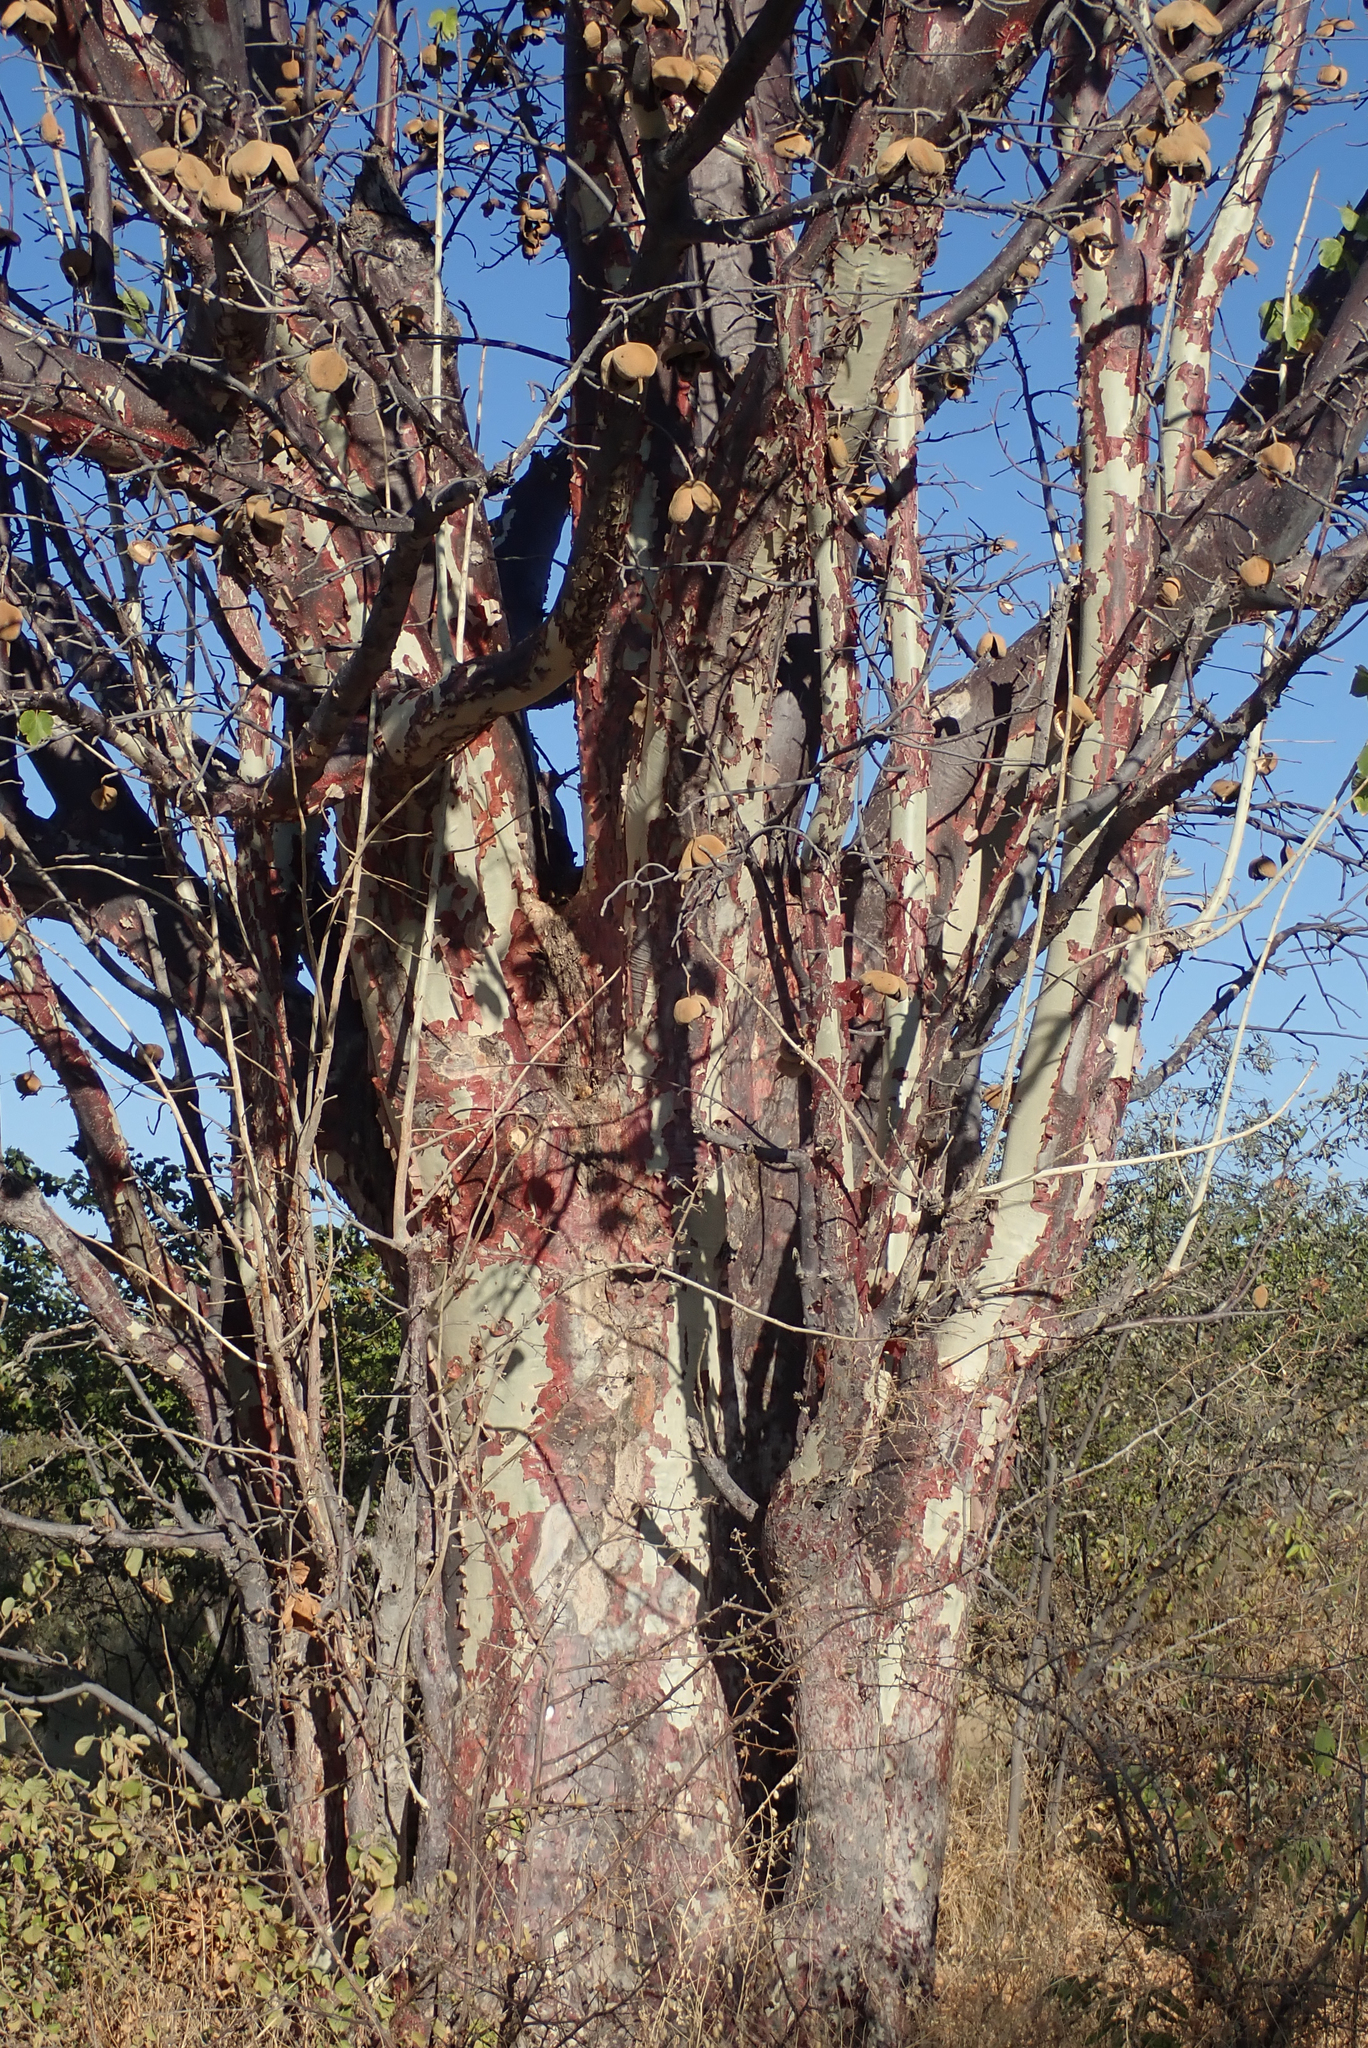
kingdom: Plantae
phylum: Tracheophyta
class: Magnoliopsida
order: Malvales
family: Malvaceae
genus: Sterculia
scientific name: Sterculia africana
